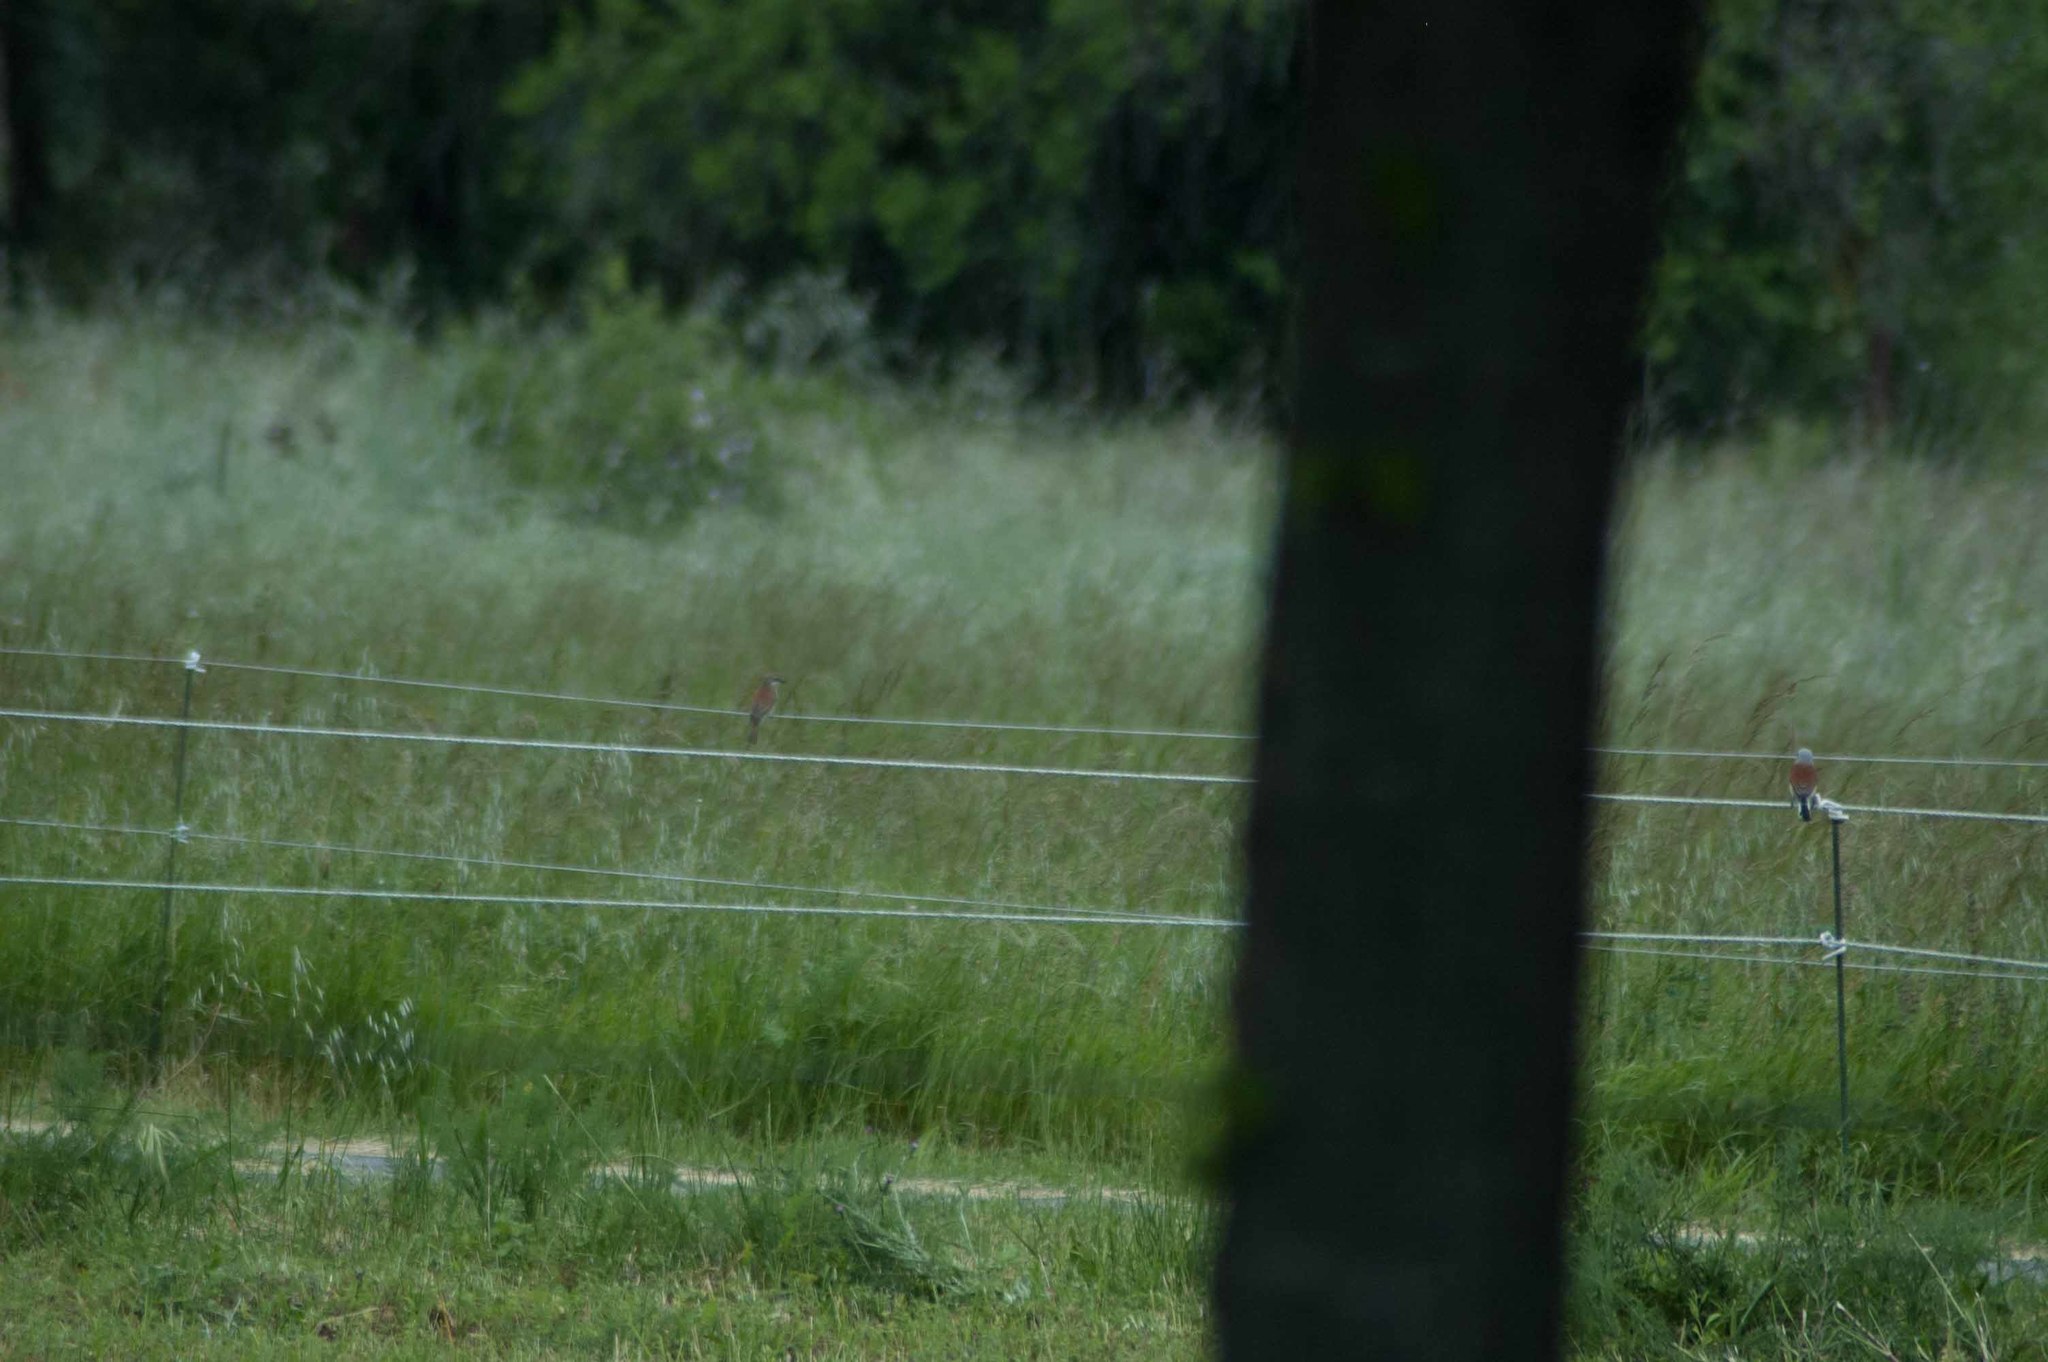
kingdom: Animalia
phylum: Chordata
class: Aves
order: Passeriformes
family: Laniidae
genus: Lanius
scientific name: Lanius collurio
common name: Red-backed shrike
